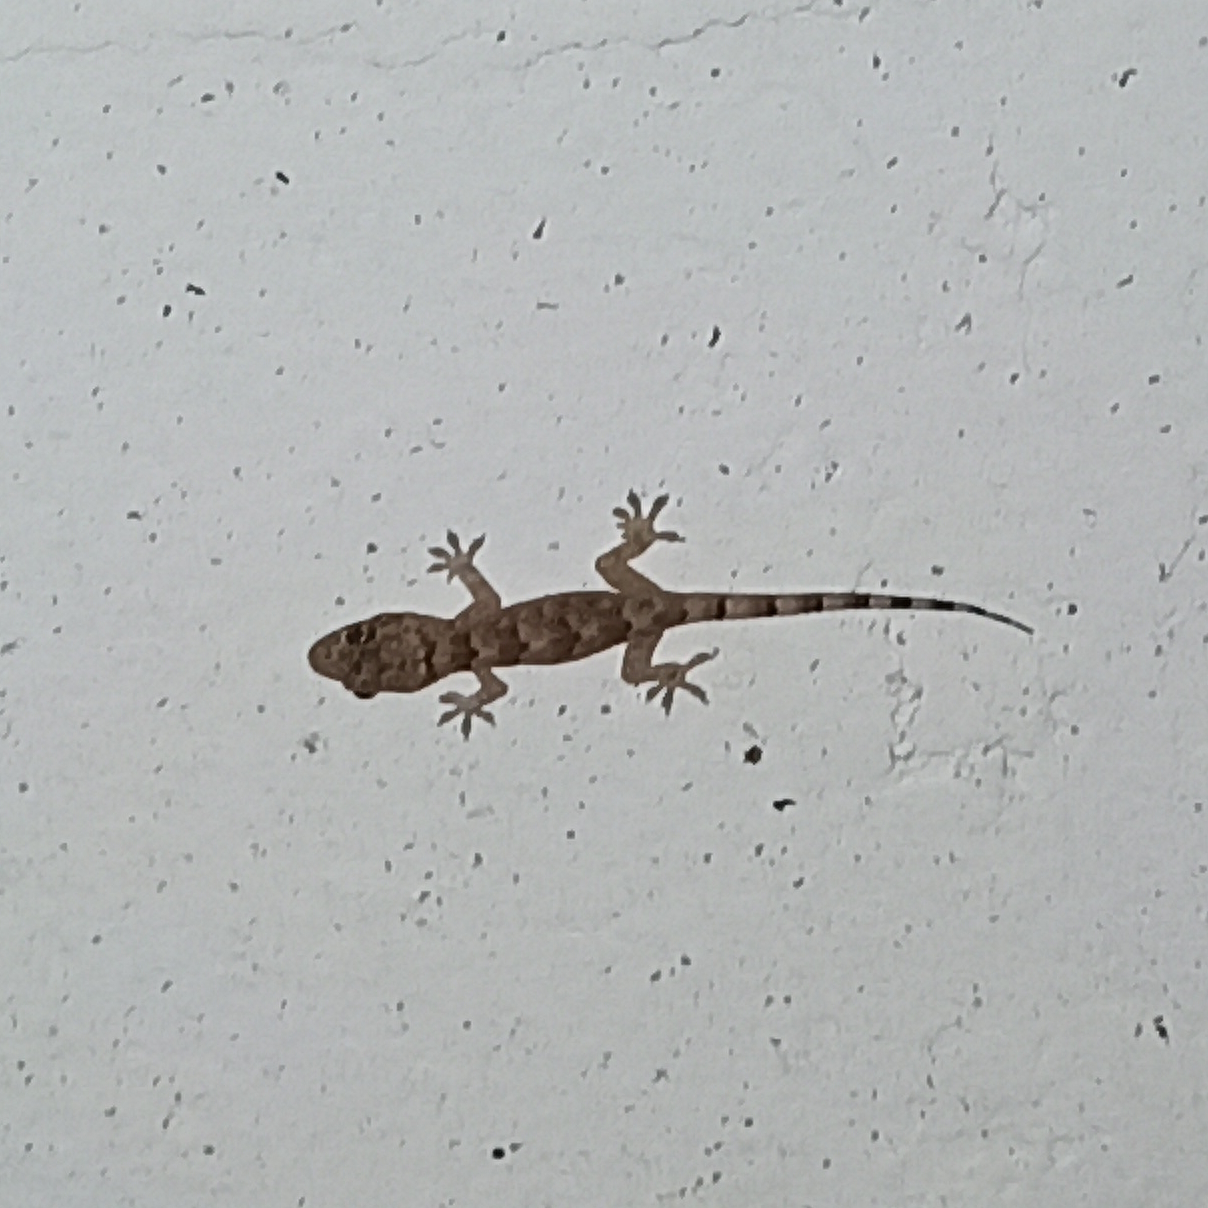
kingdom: Animalia
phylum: Chordata
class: Squamata
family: Gekkonidae
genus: Hemidactylus
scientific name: Hemidactylus mabouia
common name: House gecko
